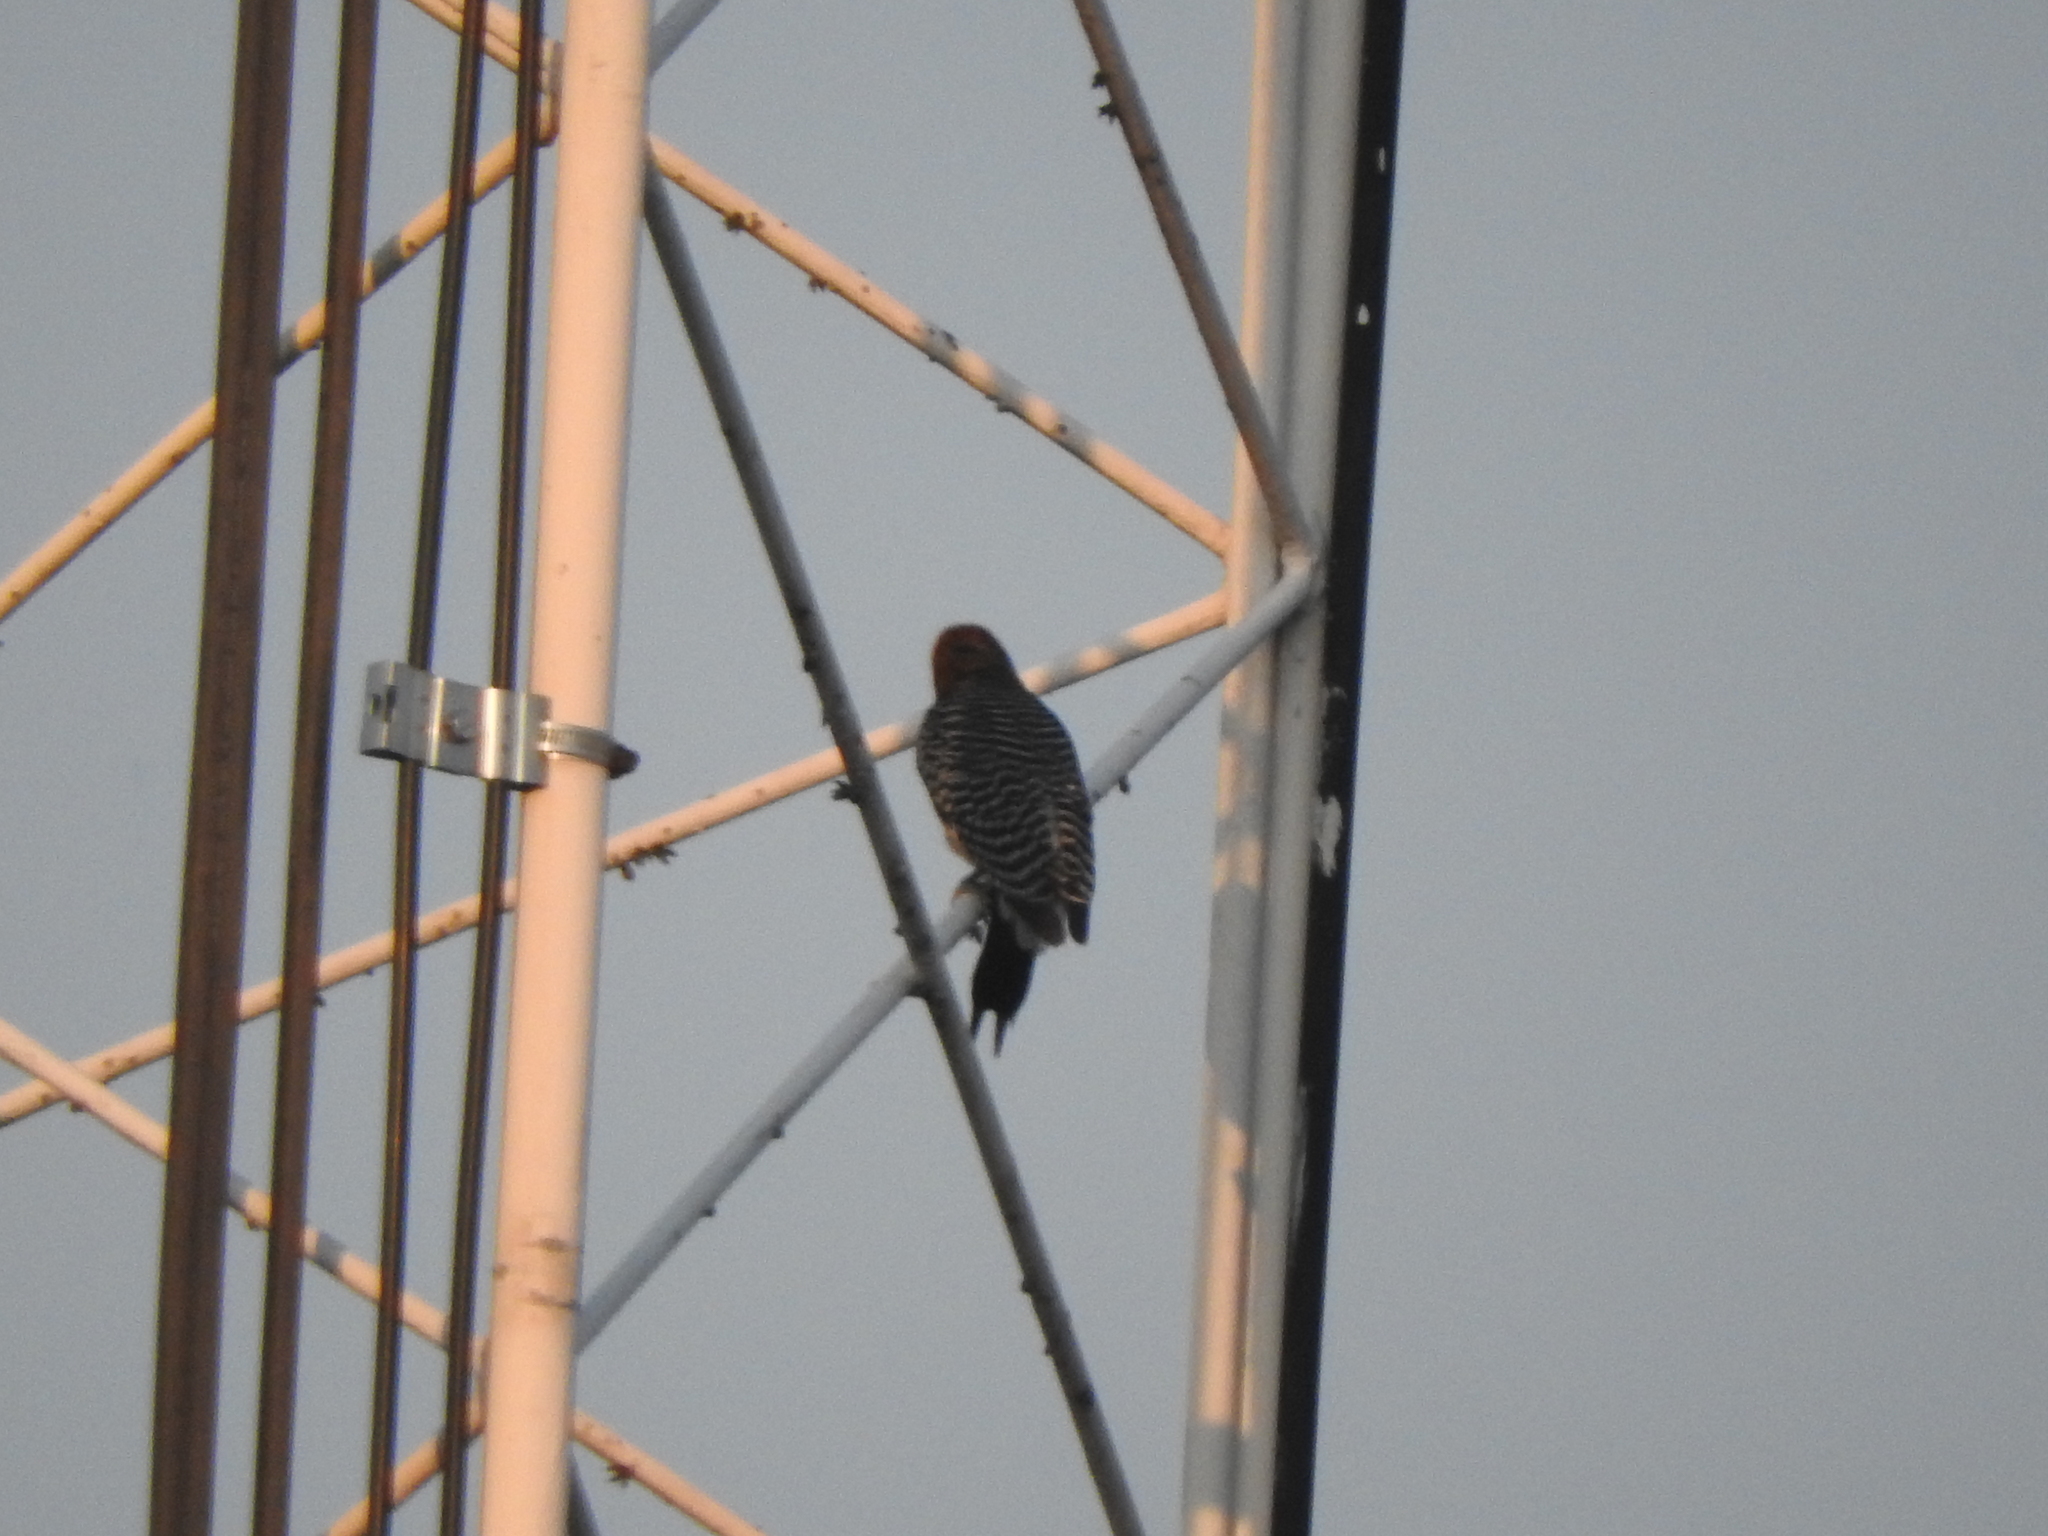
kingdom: Animalia
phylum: Chordata
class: Aves
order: Piciformes
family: Picidae
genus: Melanerpes
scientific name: Melanerpes aurifrons
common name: Golden-fronted woodpecker
